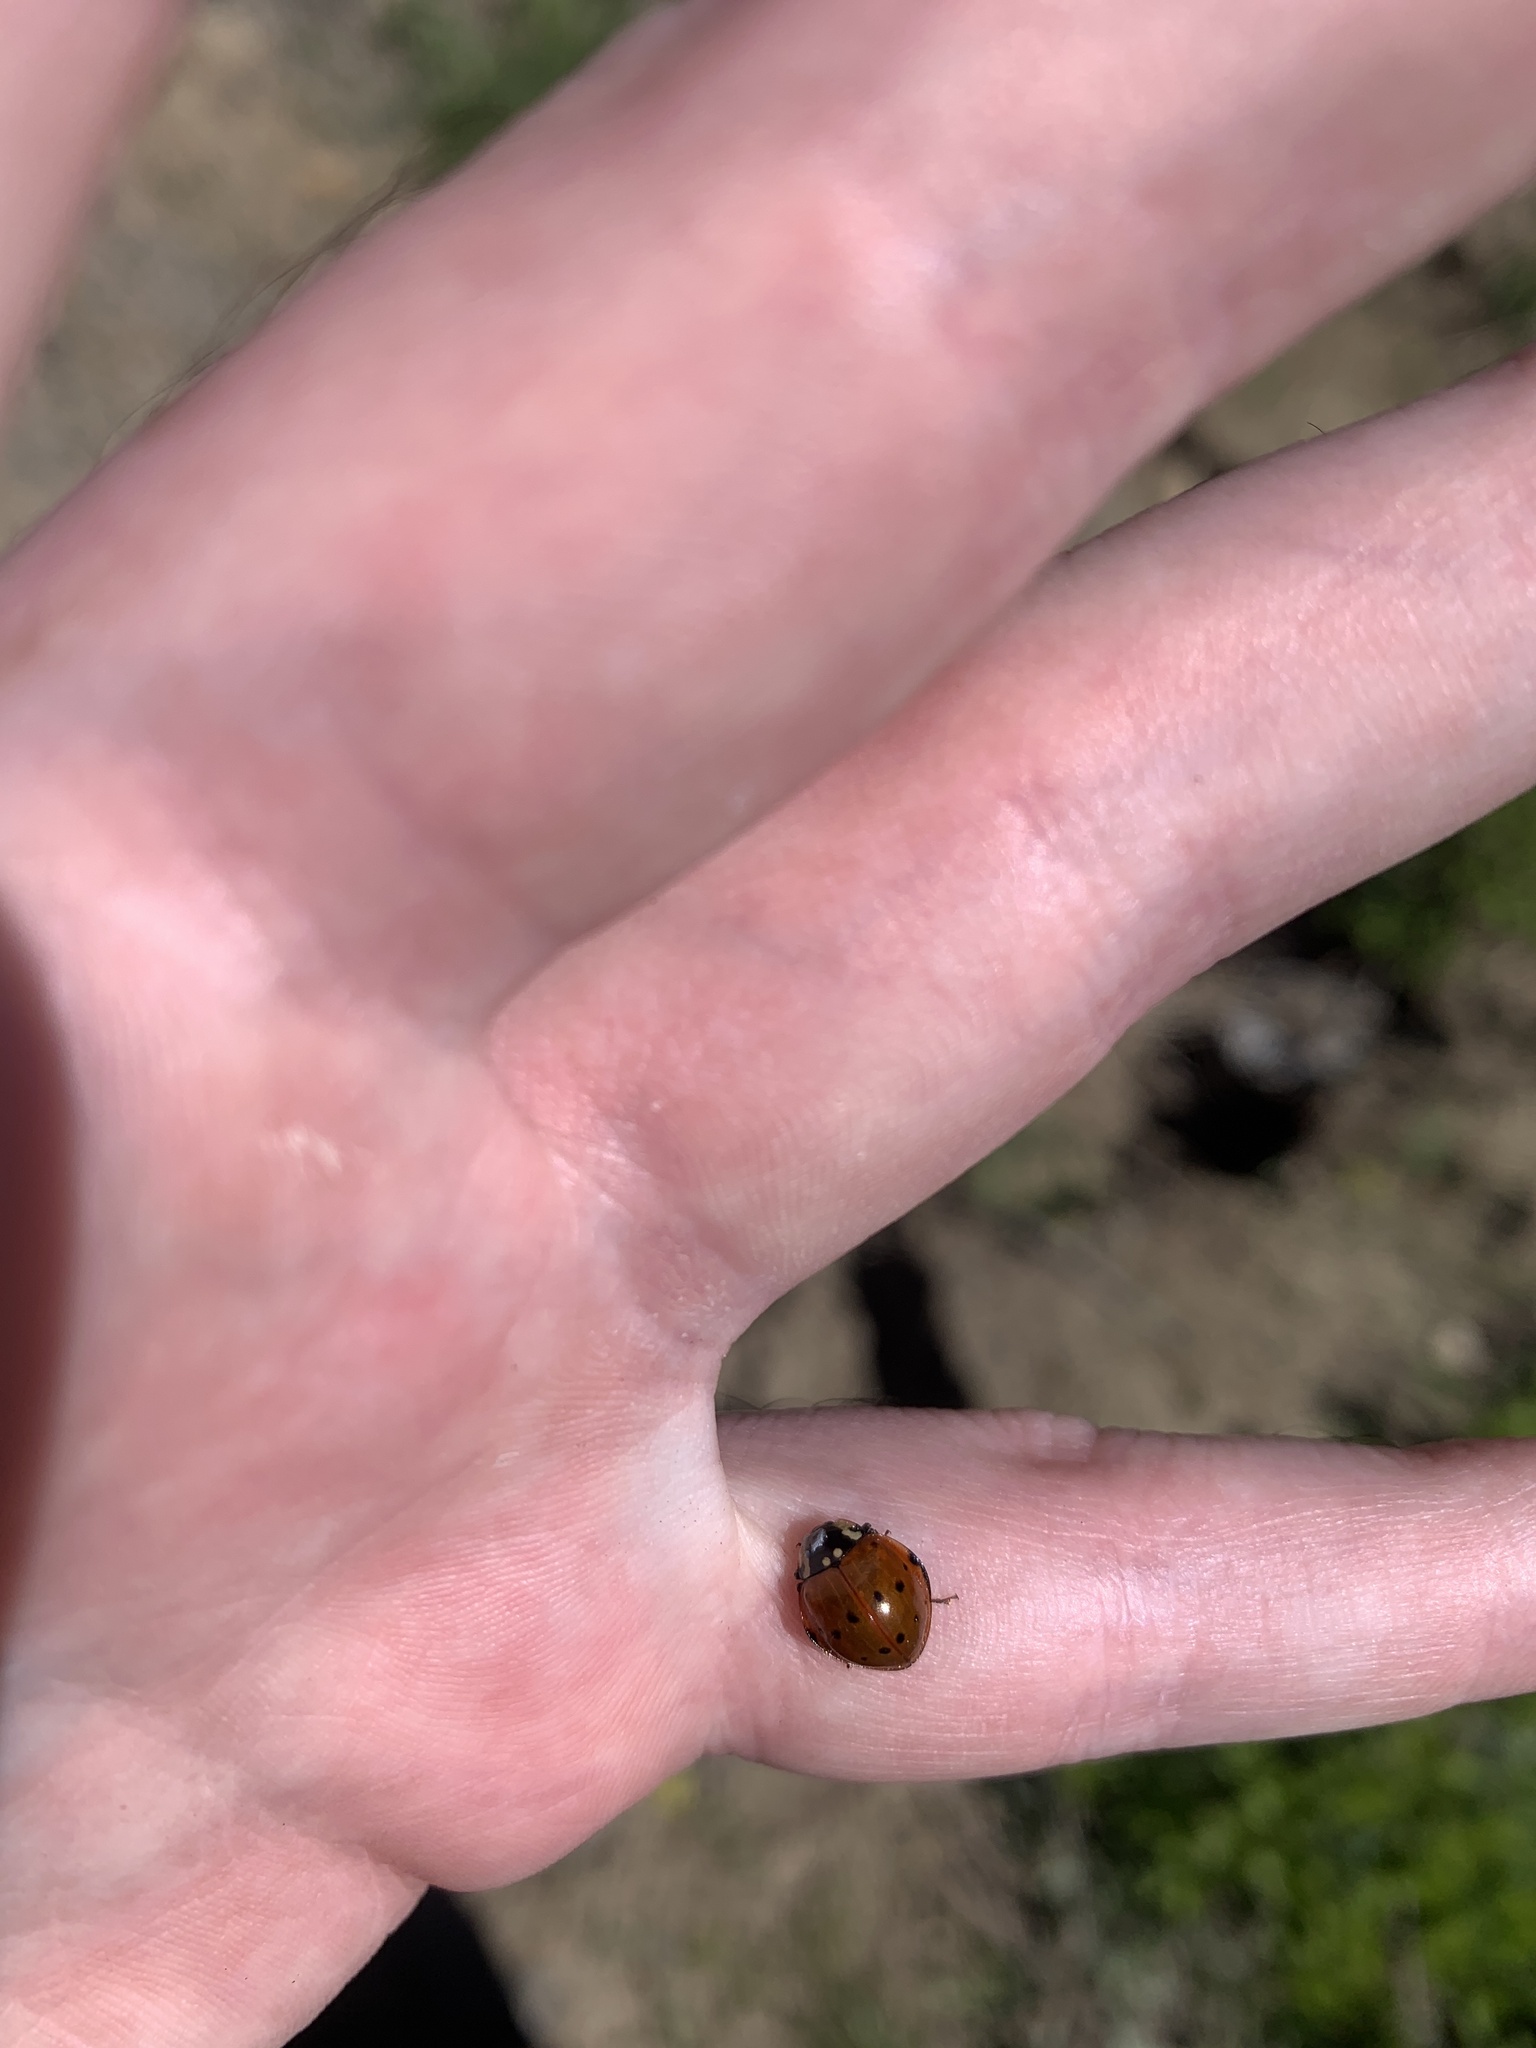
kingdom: Animalia
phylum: Arthropoda
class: Insecta
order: Coleoptera
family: Coccinellidae
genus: Anatis
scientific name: Anatis rathvoni
